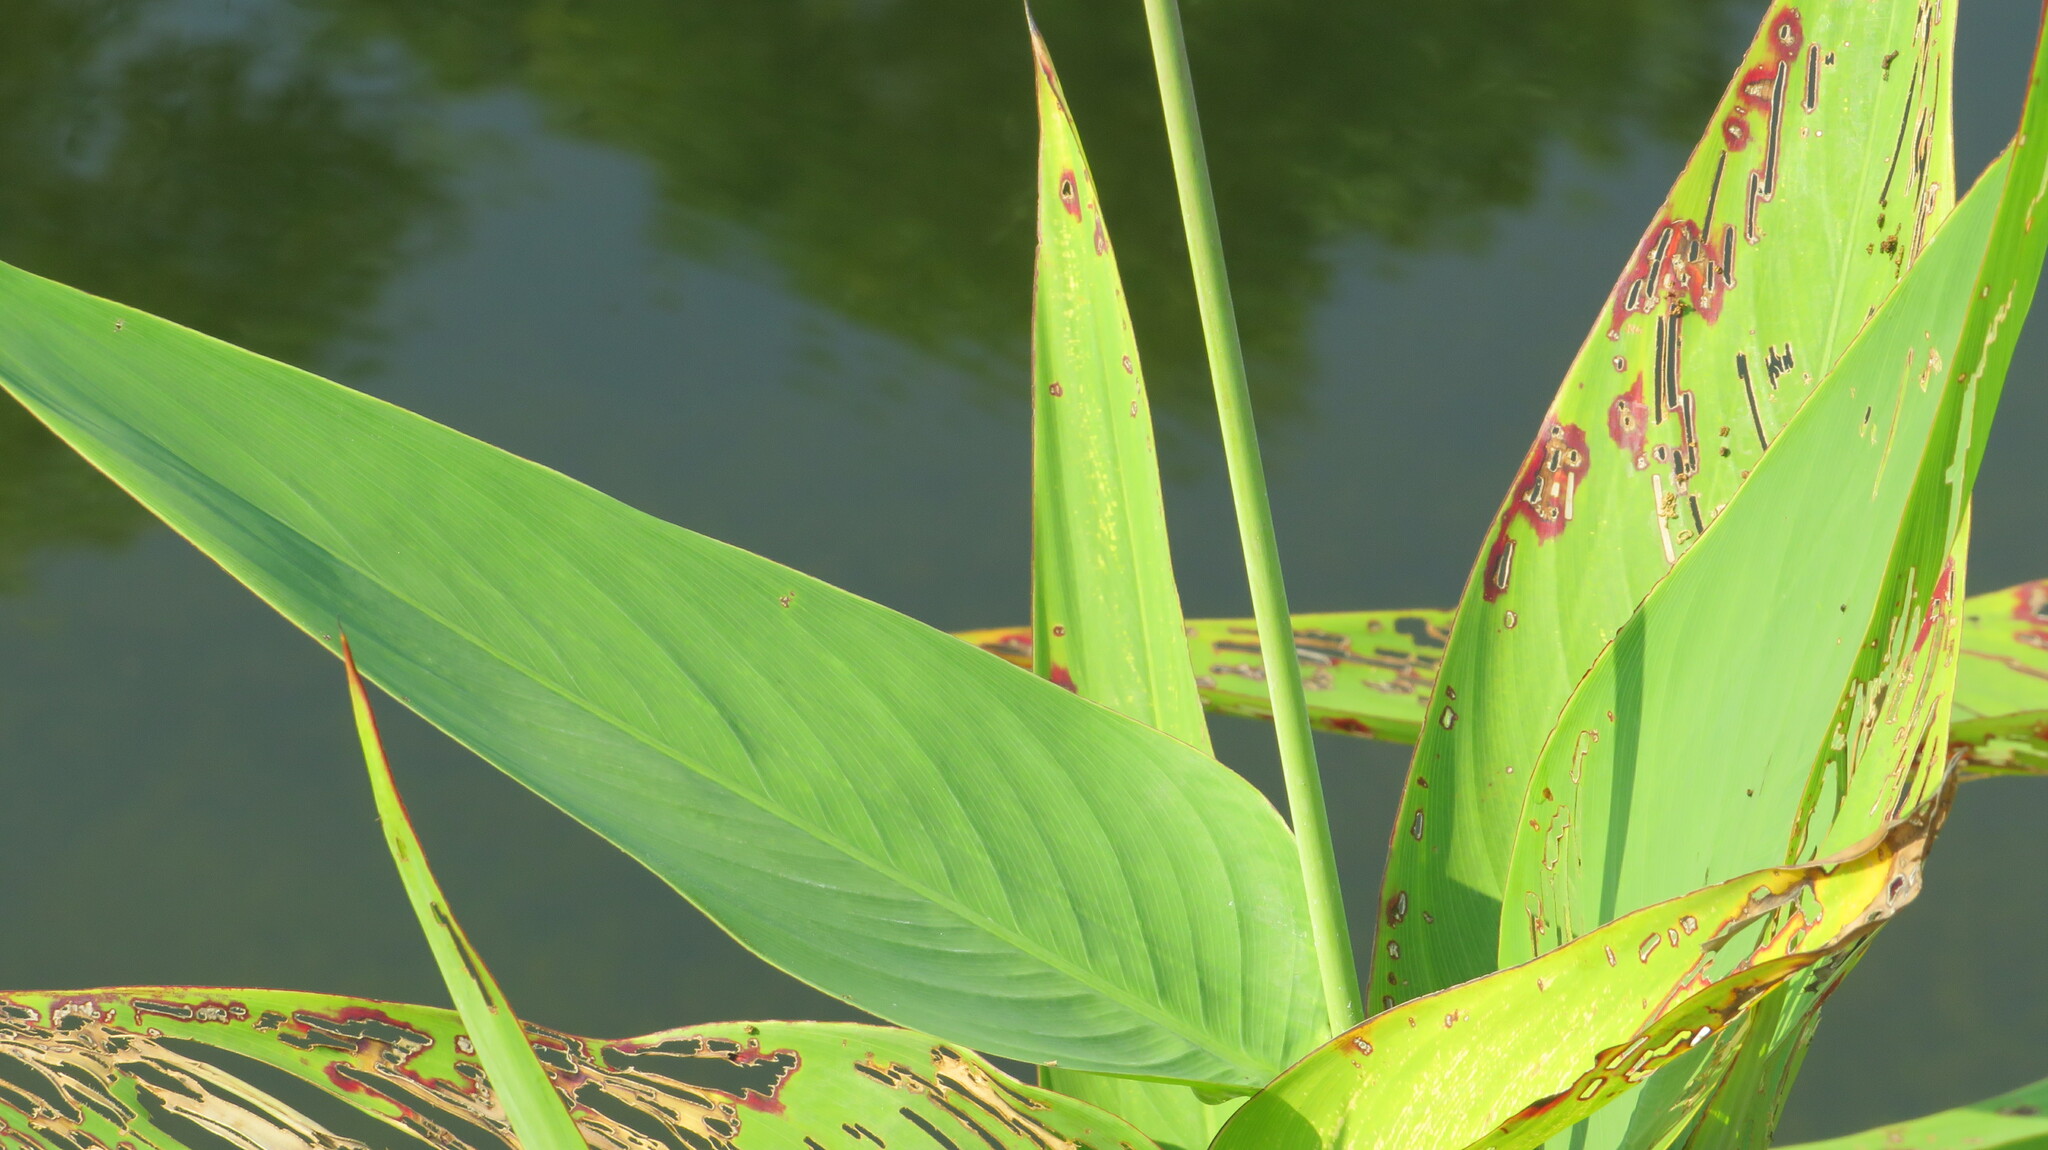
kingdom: Plantae
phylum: Tracheophyta
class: Liliopsida
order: Zingiberales
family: Marantaceae
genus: Thalia
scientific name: Thalia geniculata
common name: Arrowroot
